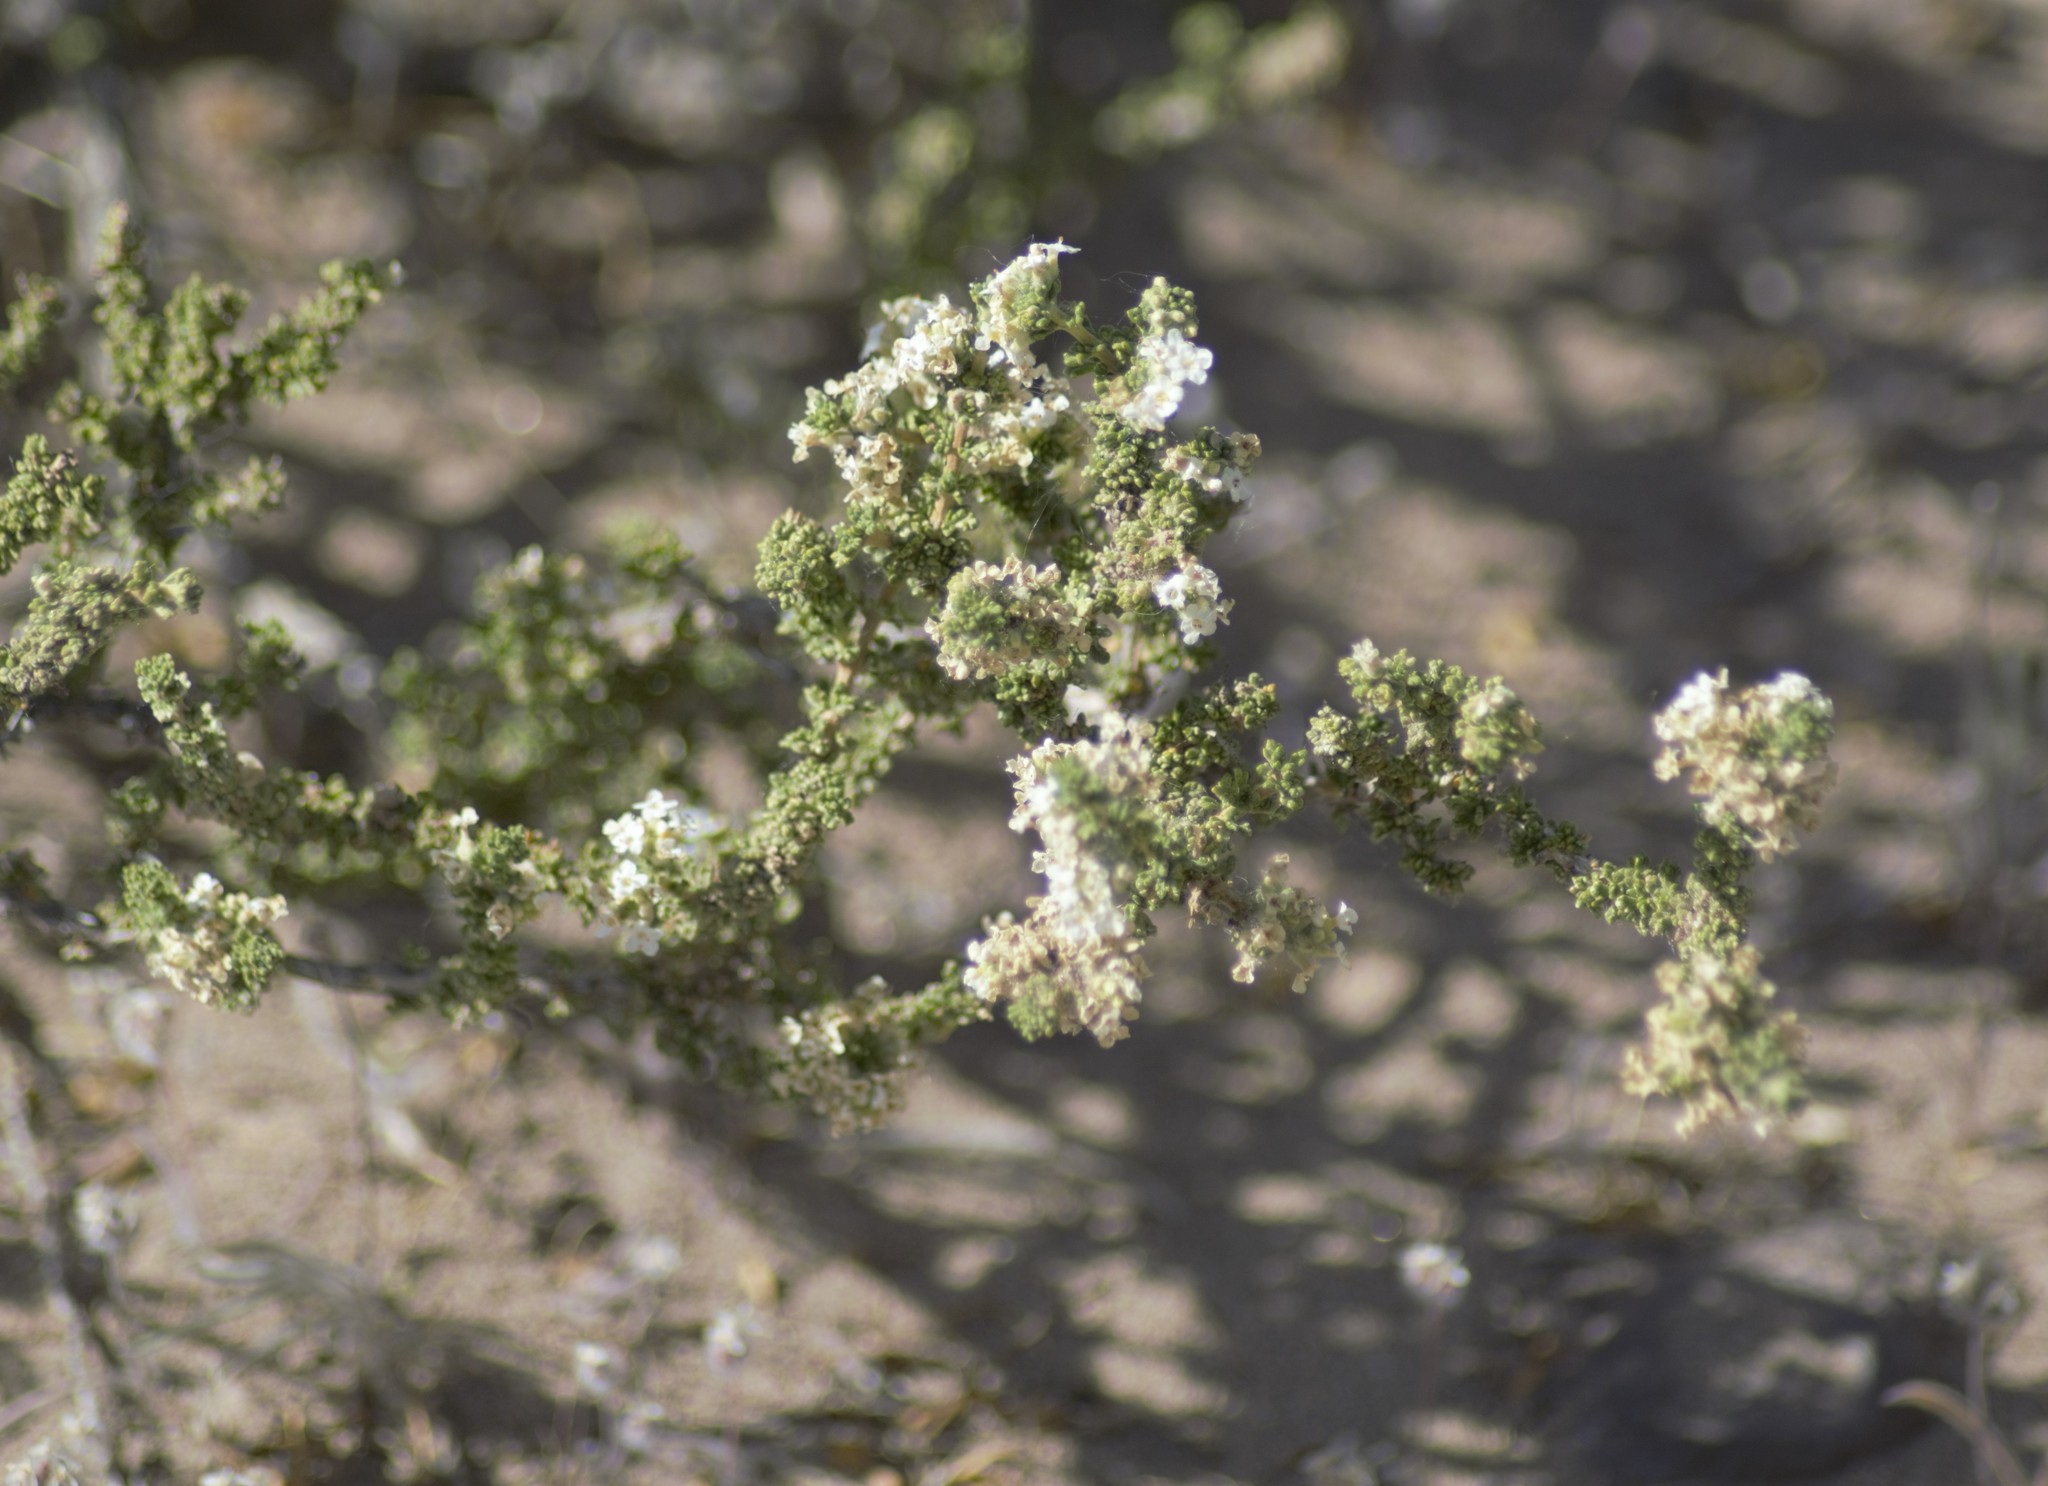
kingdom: Plantae
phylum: Tracheophyta
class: Magnoliopsida
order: Lamiales
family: Verbenaceae
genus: Acantholippia
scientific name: Acantholippia seriphioides
